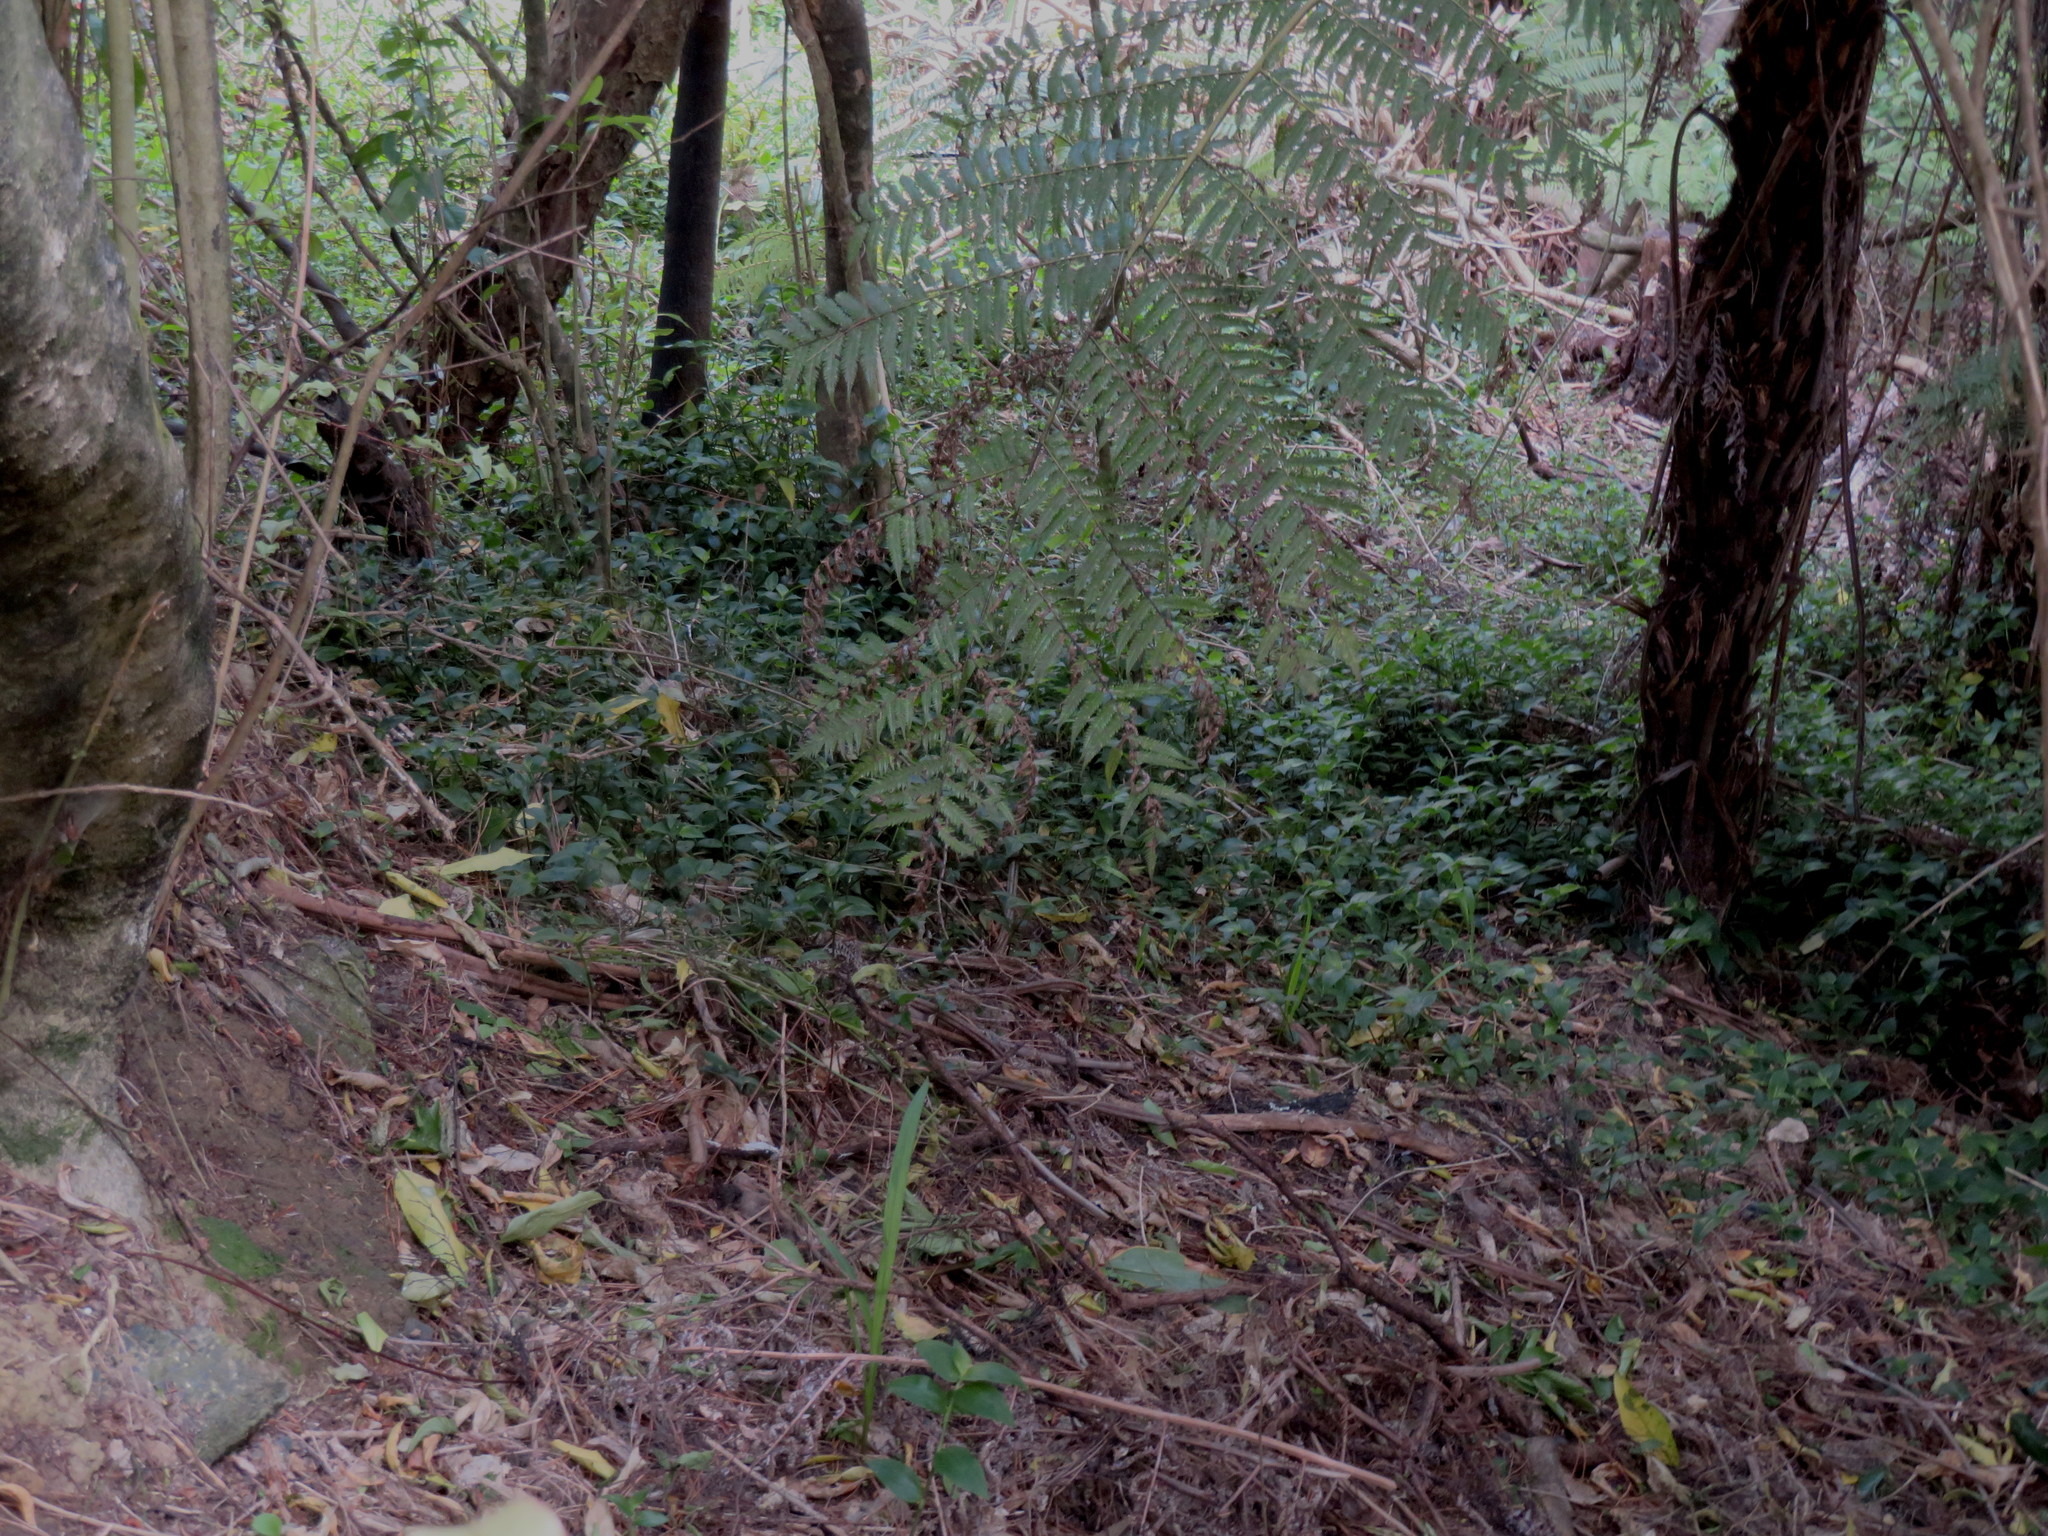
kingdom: Plantae
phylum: Tracheophyta
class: Liliopsida
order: Commelinales
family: Commelinaceae
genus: Tradescantia
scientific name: Tradescantia fluminensis
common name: Wandering-jew
